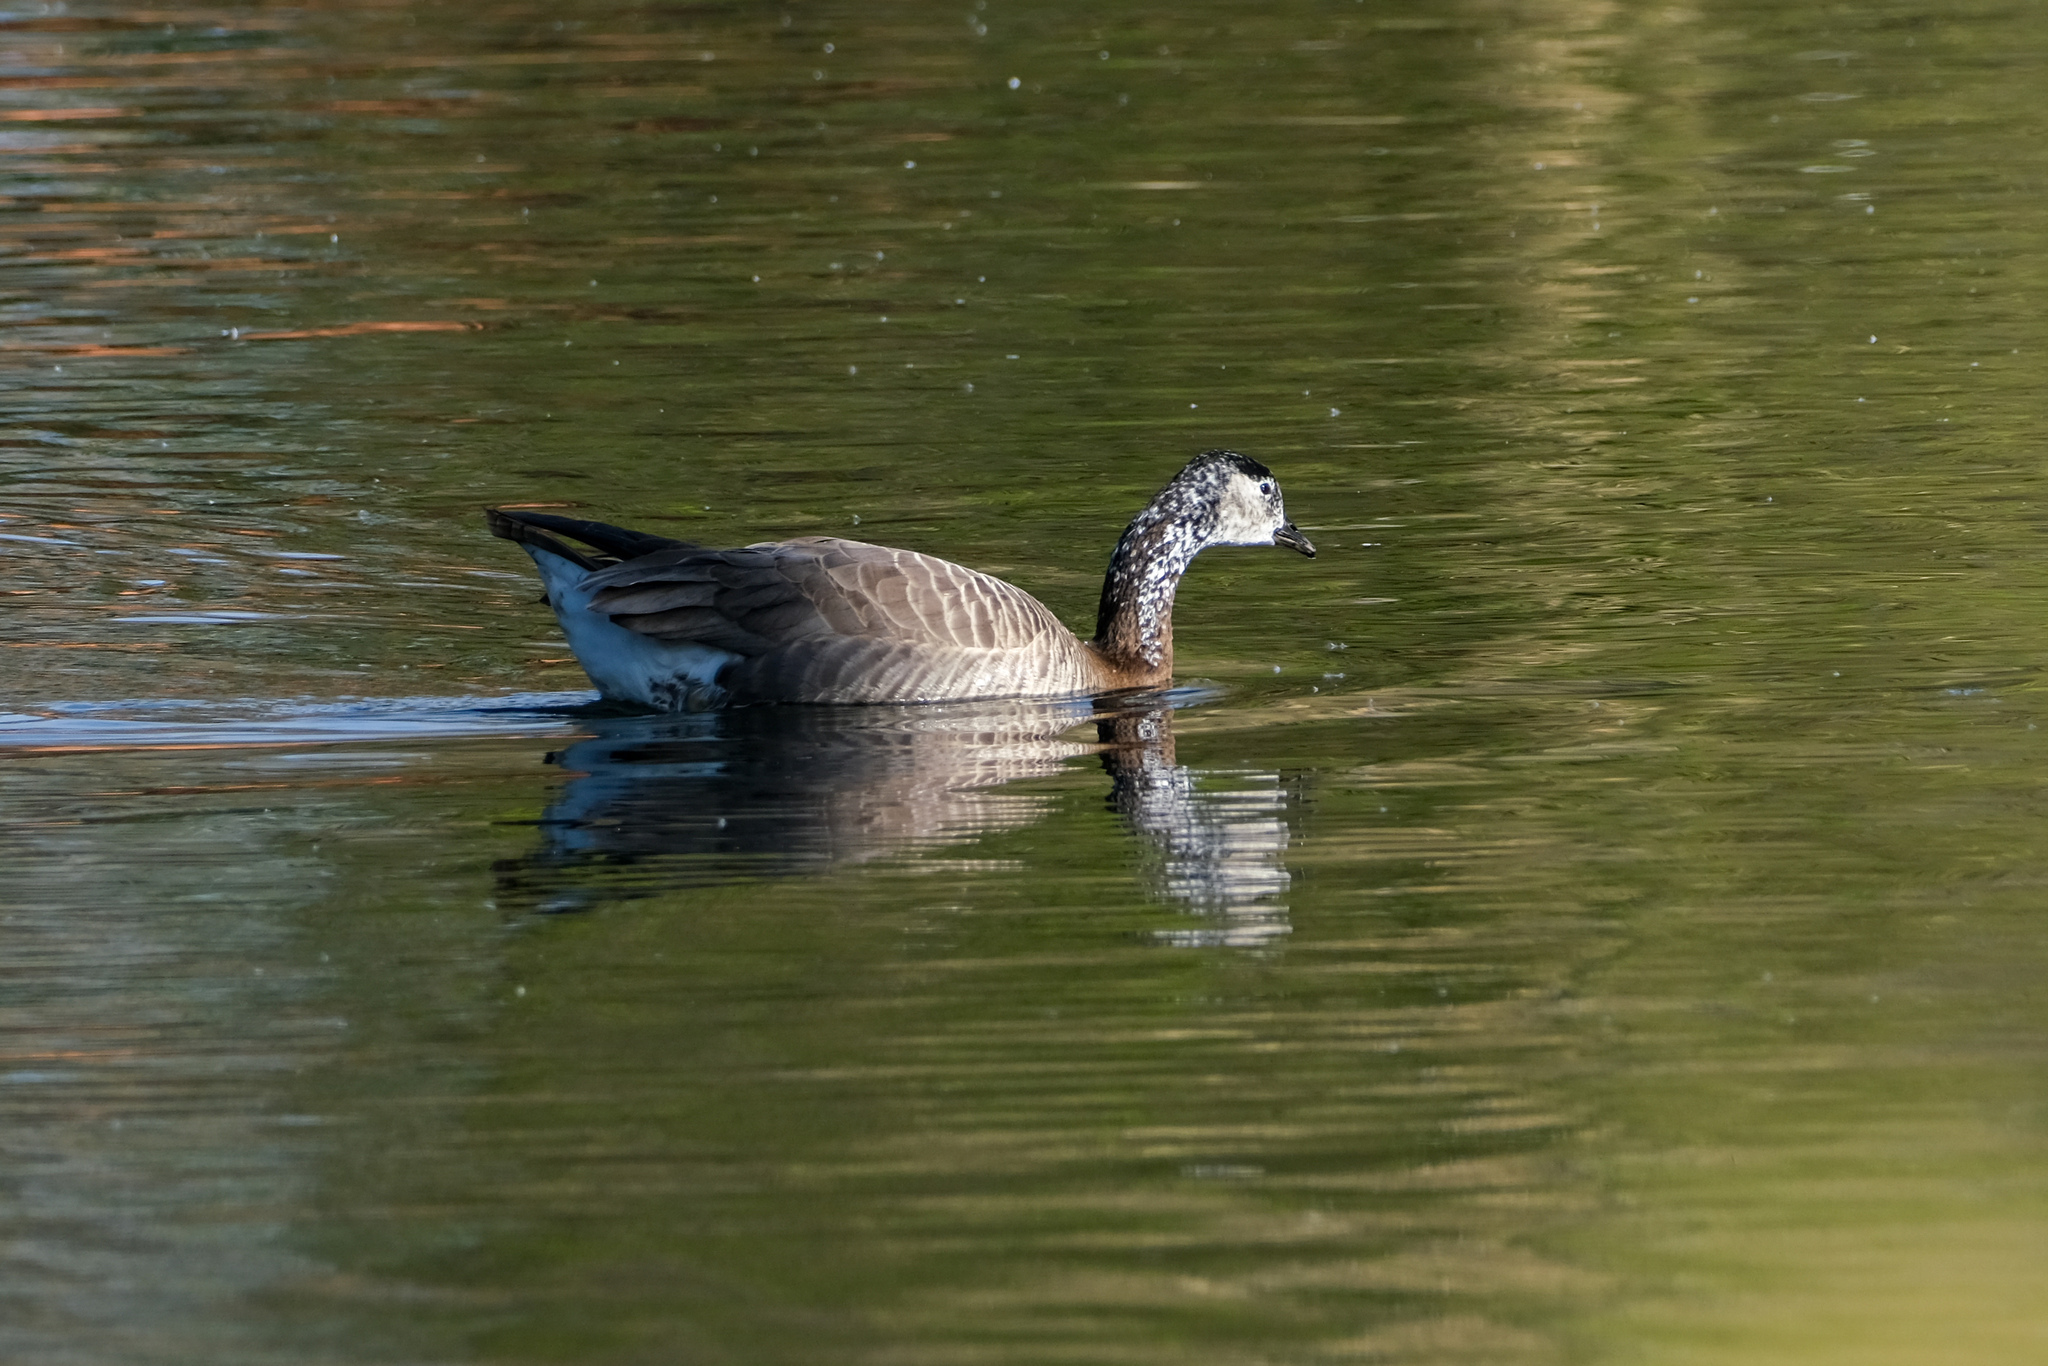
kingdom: Animalia
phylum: Chordata
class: Aves
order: Anseriformes
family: Anatidae
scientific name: Anatidae
